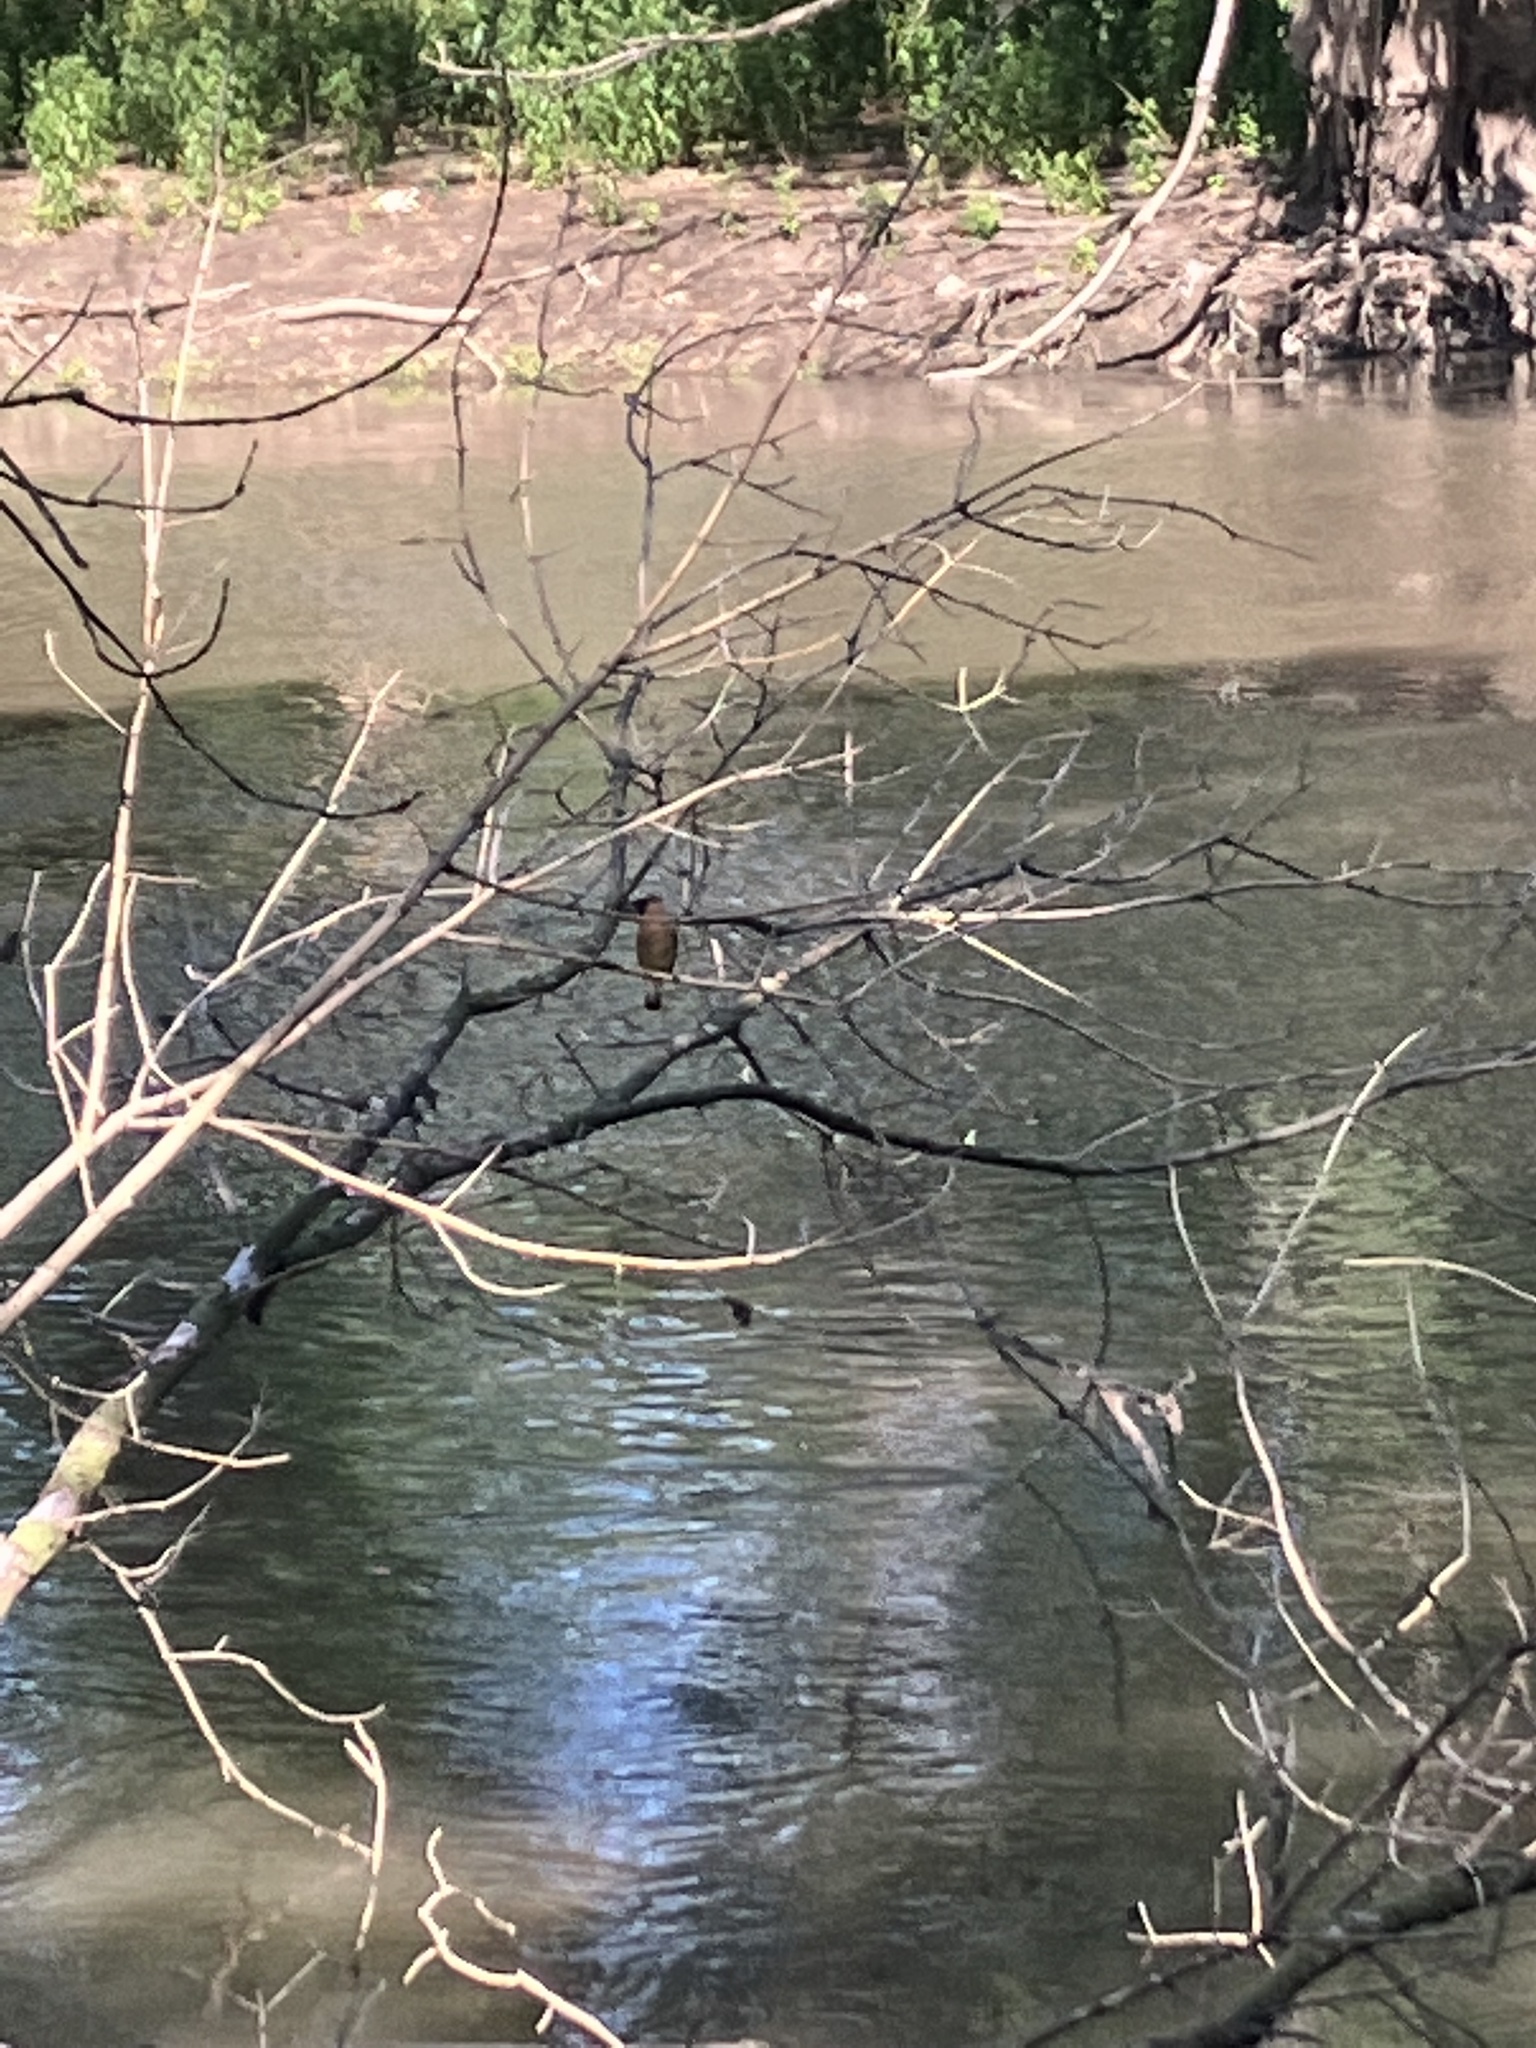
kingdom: Animalia
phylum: Chordata
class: Aves
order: Passeriformes
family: Bombycillidae
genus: Bombycilla
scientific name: Bombycilla cedrorum
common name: Cedar waxwing
